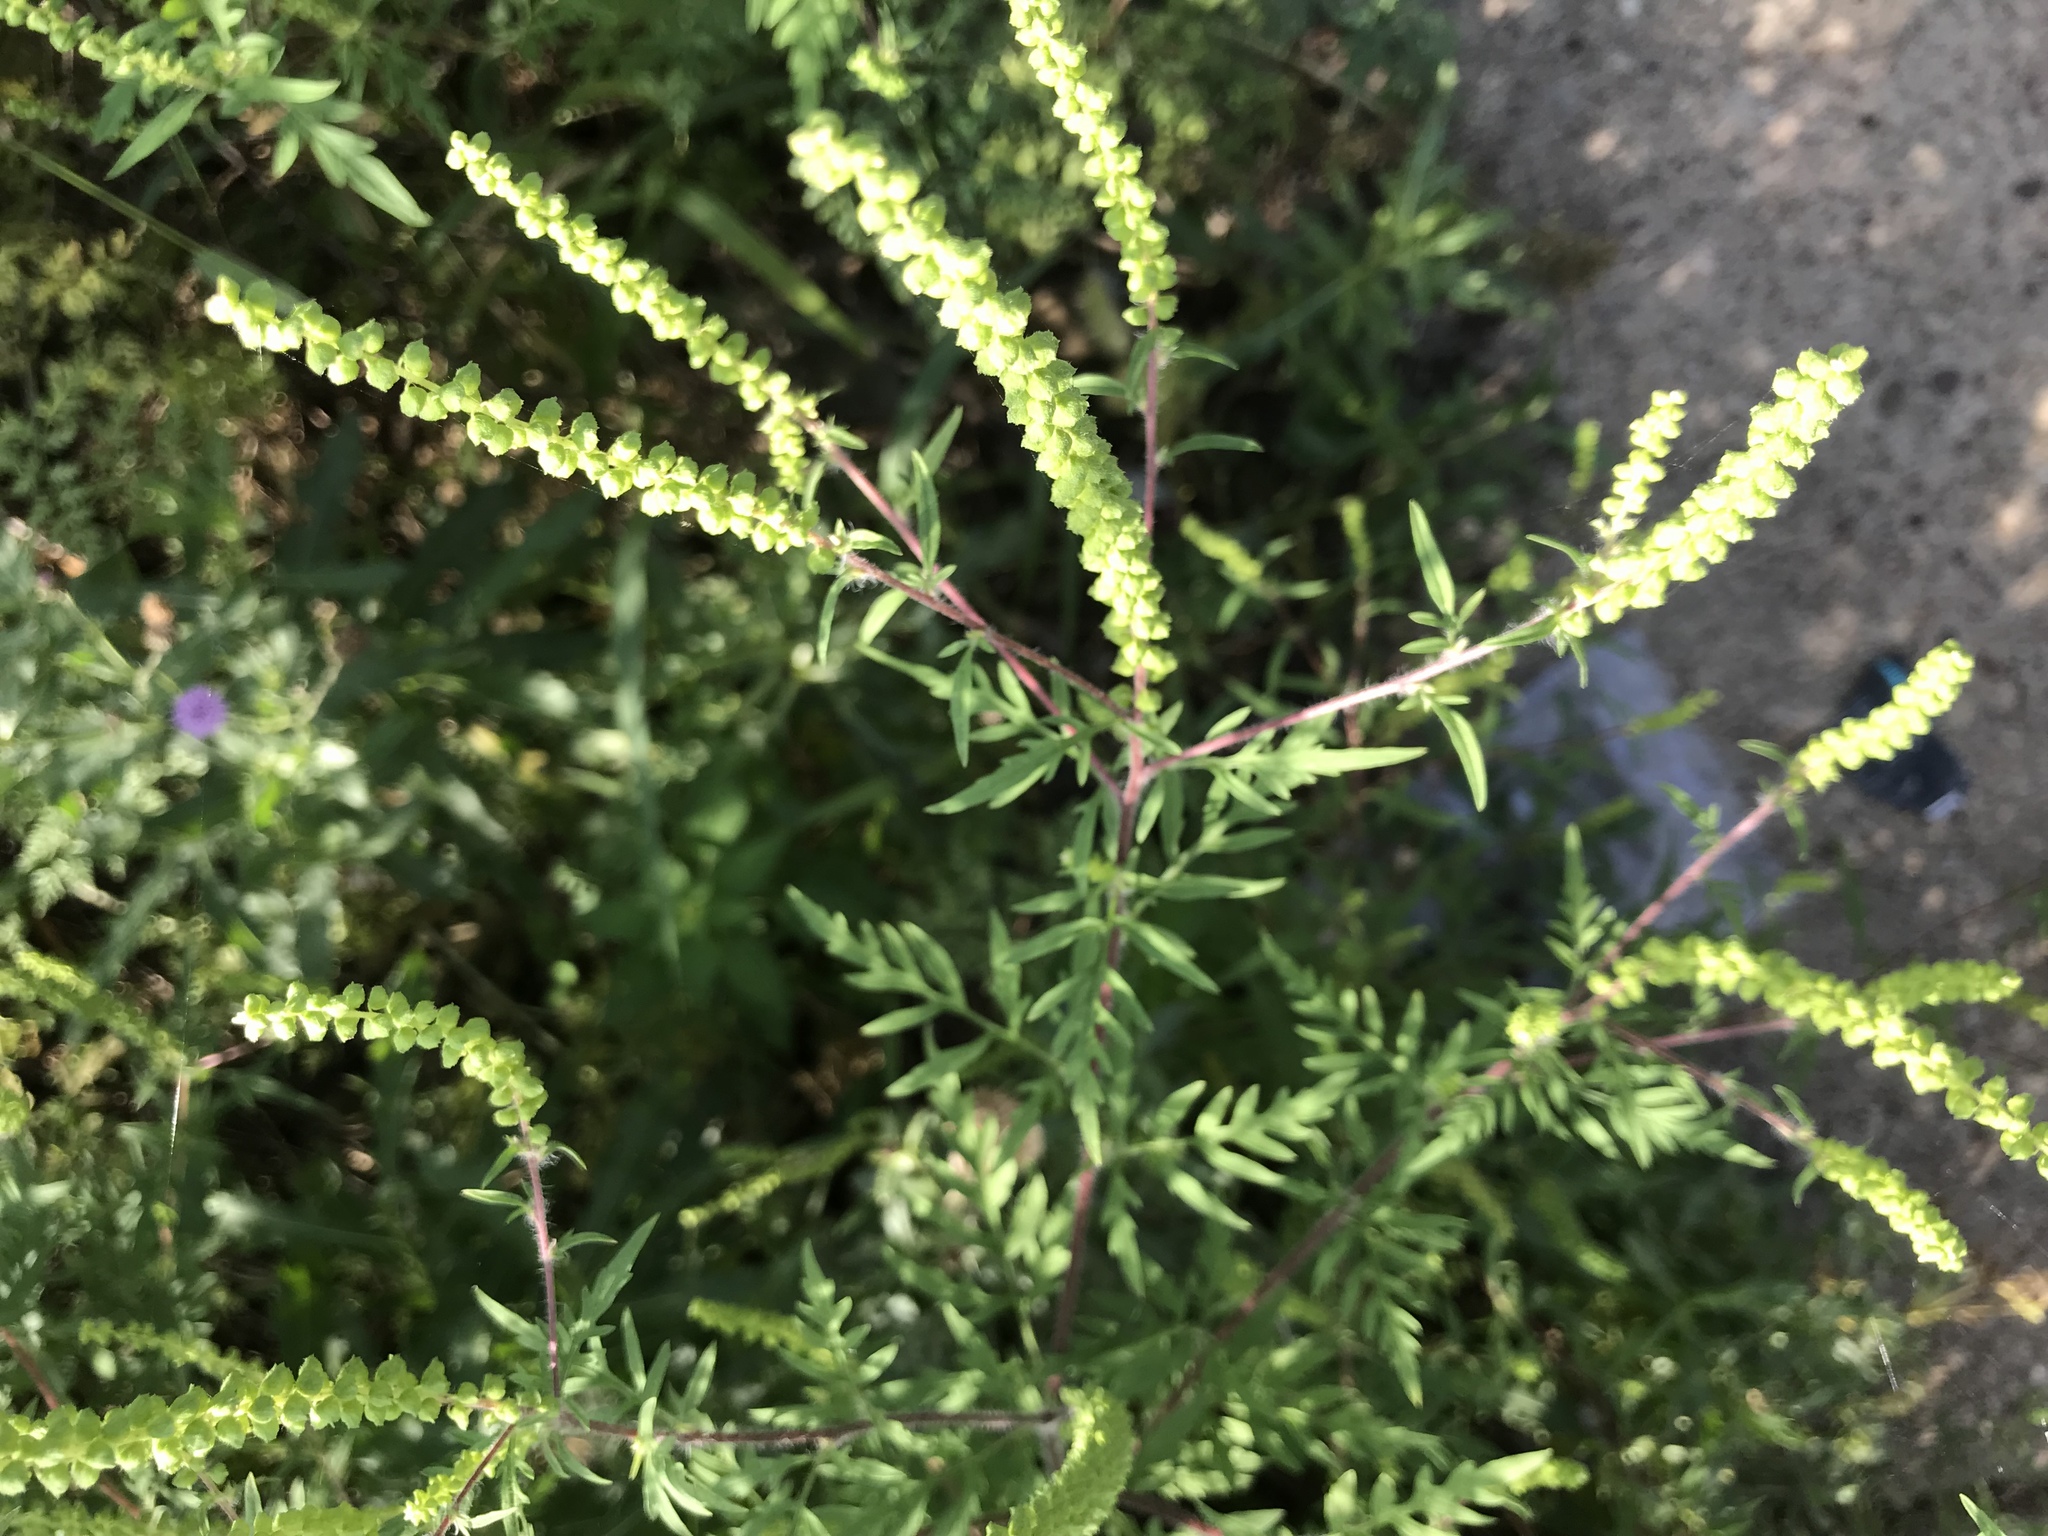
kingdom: Plantae
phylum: Tracheophyta
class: Magnoliopsida
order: Asterales
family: Asteraceae
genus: Ambrosia
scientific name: Ambrosia artemisiifolia
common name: Annual ragweed
